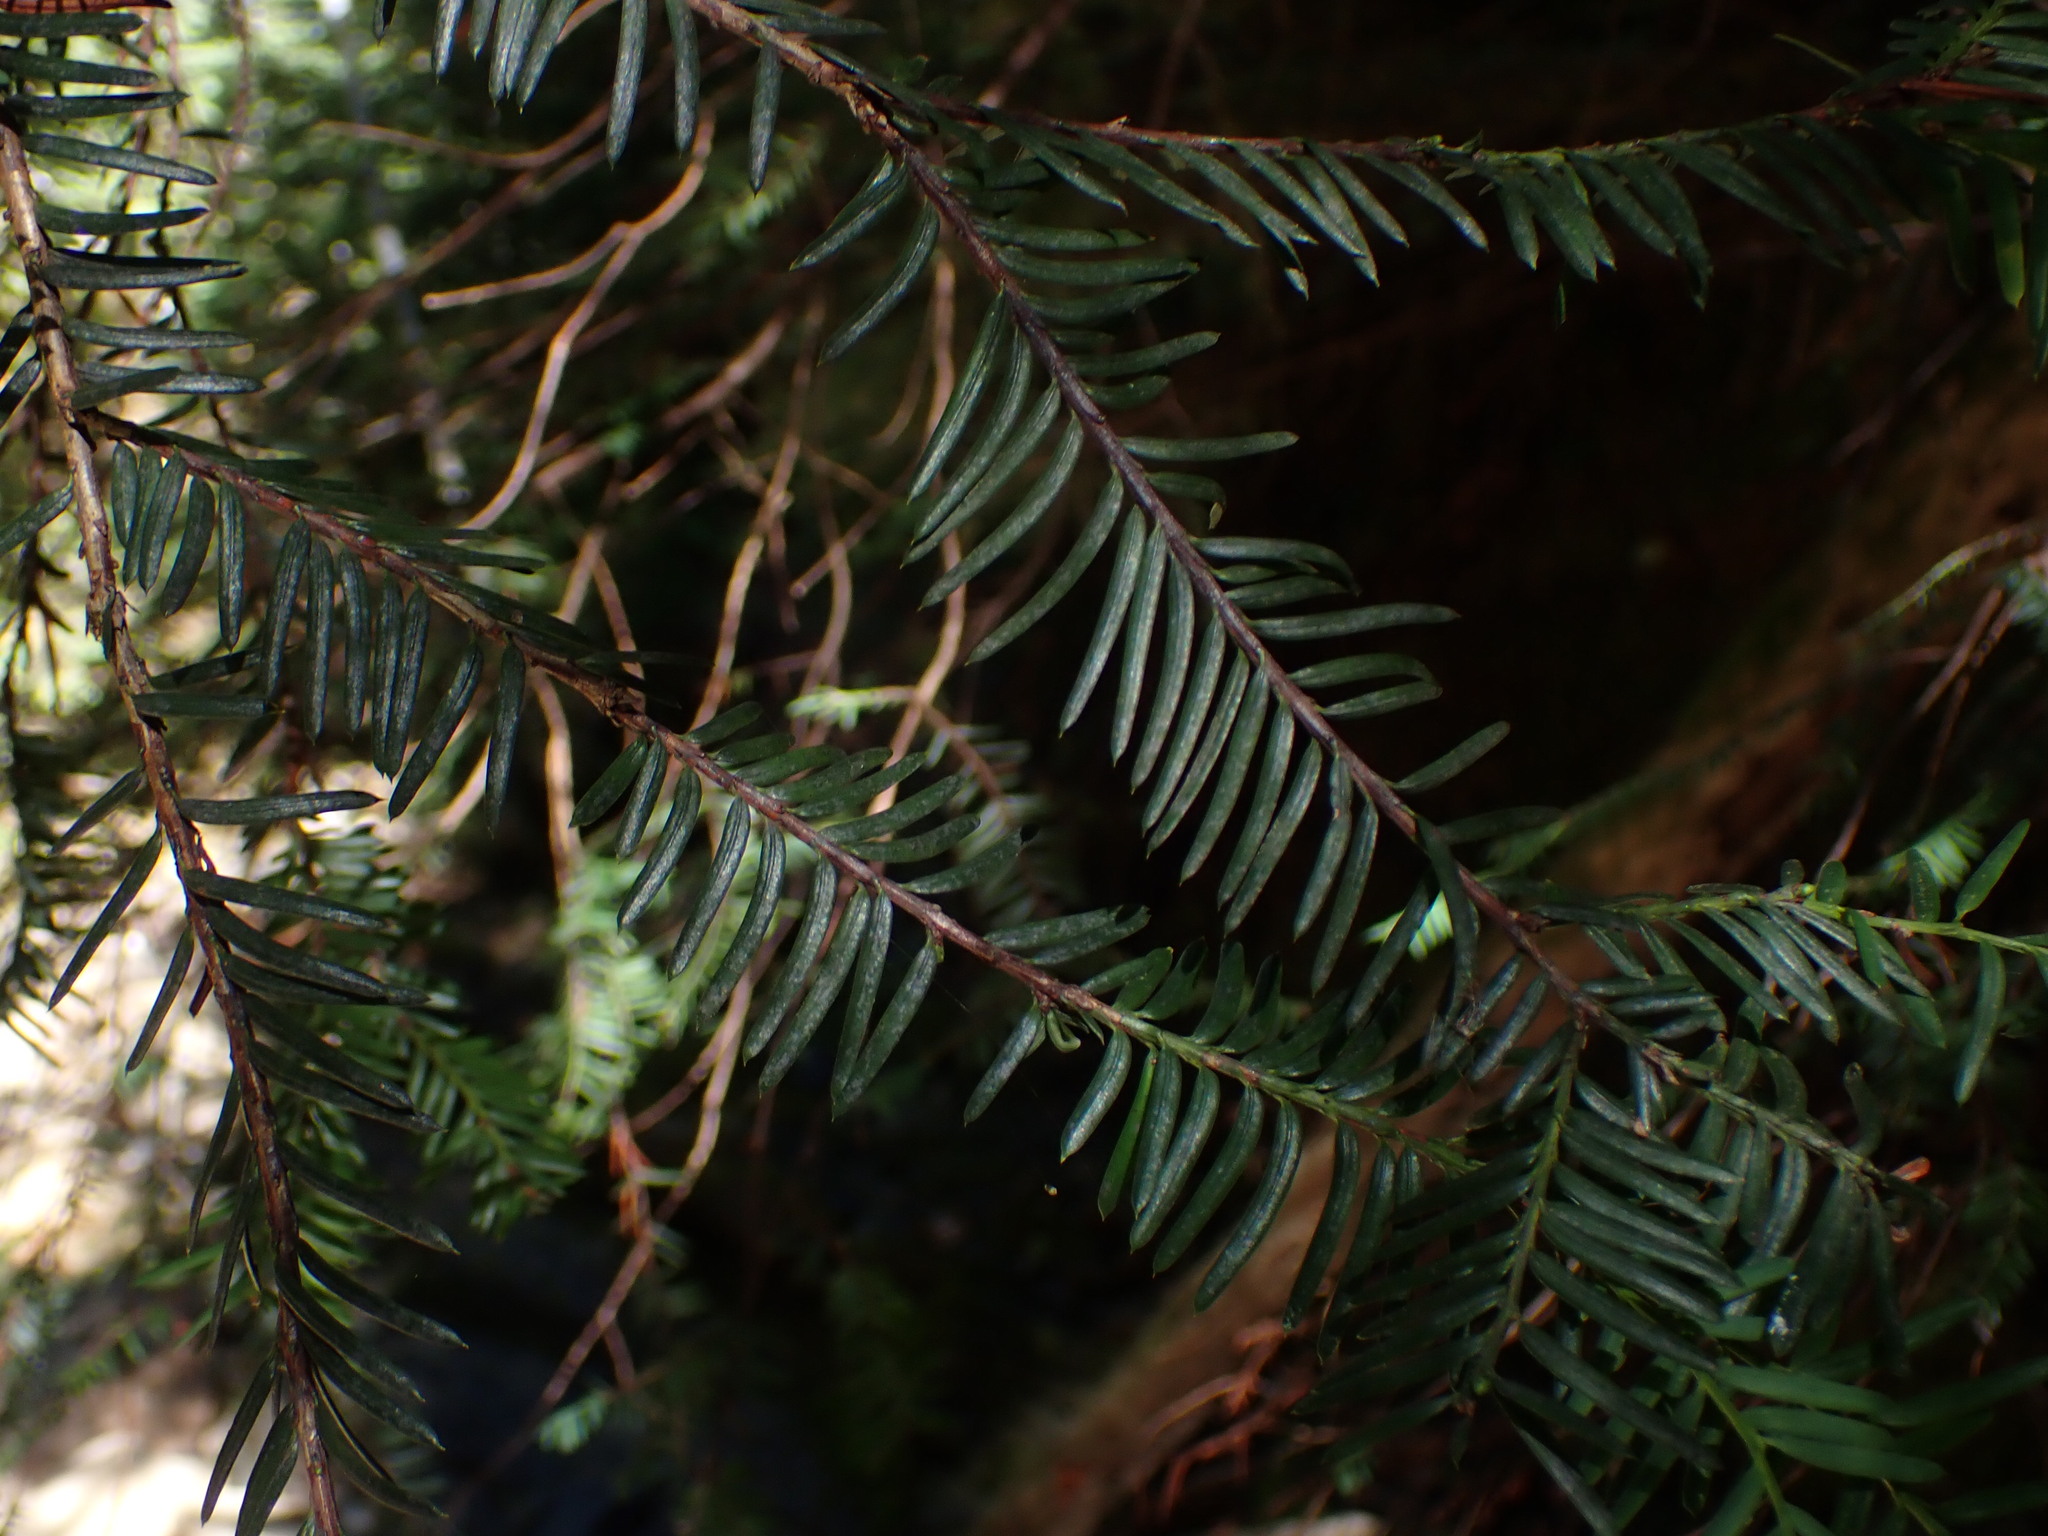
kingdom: Plantae
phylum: Tracheophyta
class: Pinopsida
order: Pinales
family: Taxaceae
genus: Taxus
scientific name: Taxus brevifolia
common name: Pacific yew
